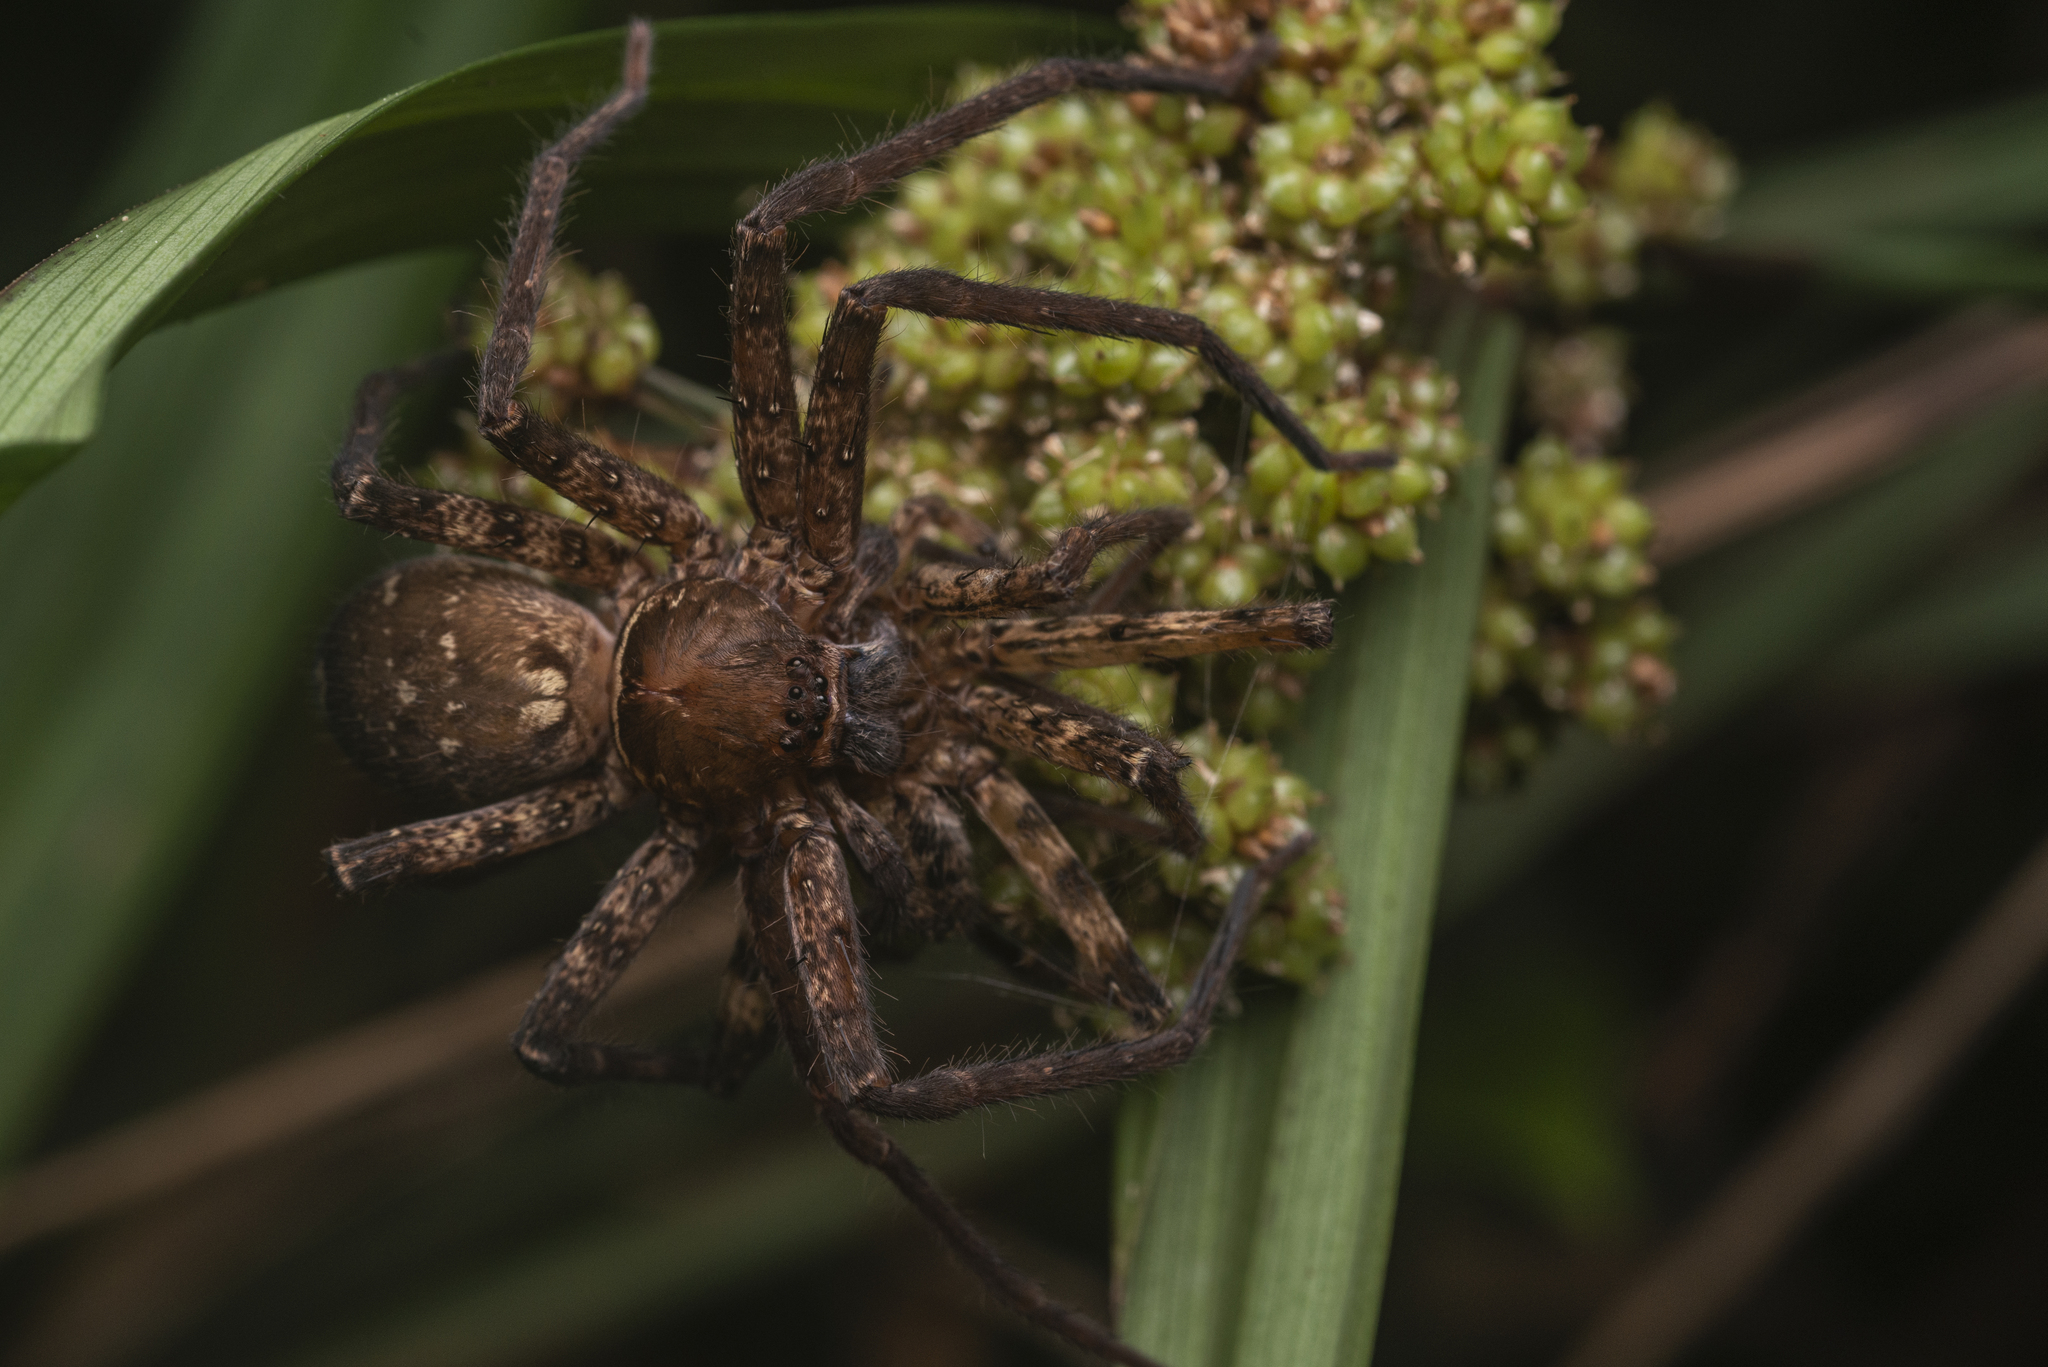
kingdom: Animalia
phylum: Arthropoda
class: Arachnida
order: Araneae
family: Sparassidae
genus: Heteropoda
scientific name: Heteropoda amphora
